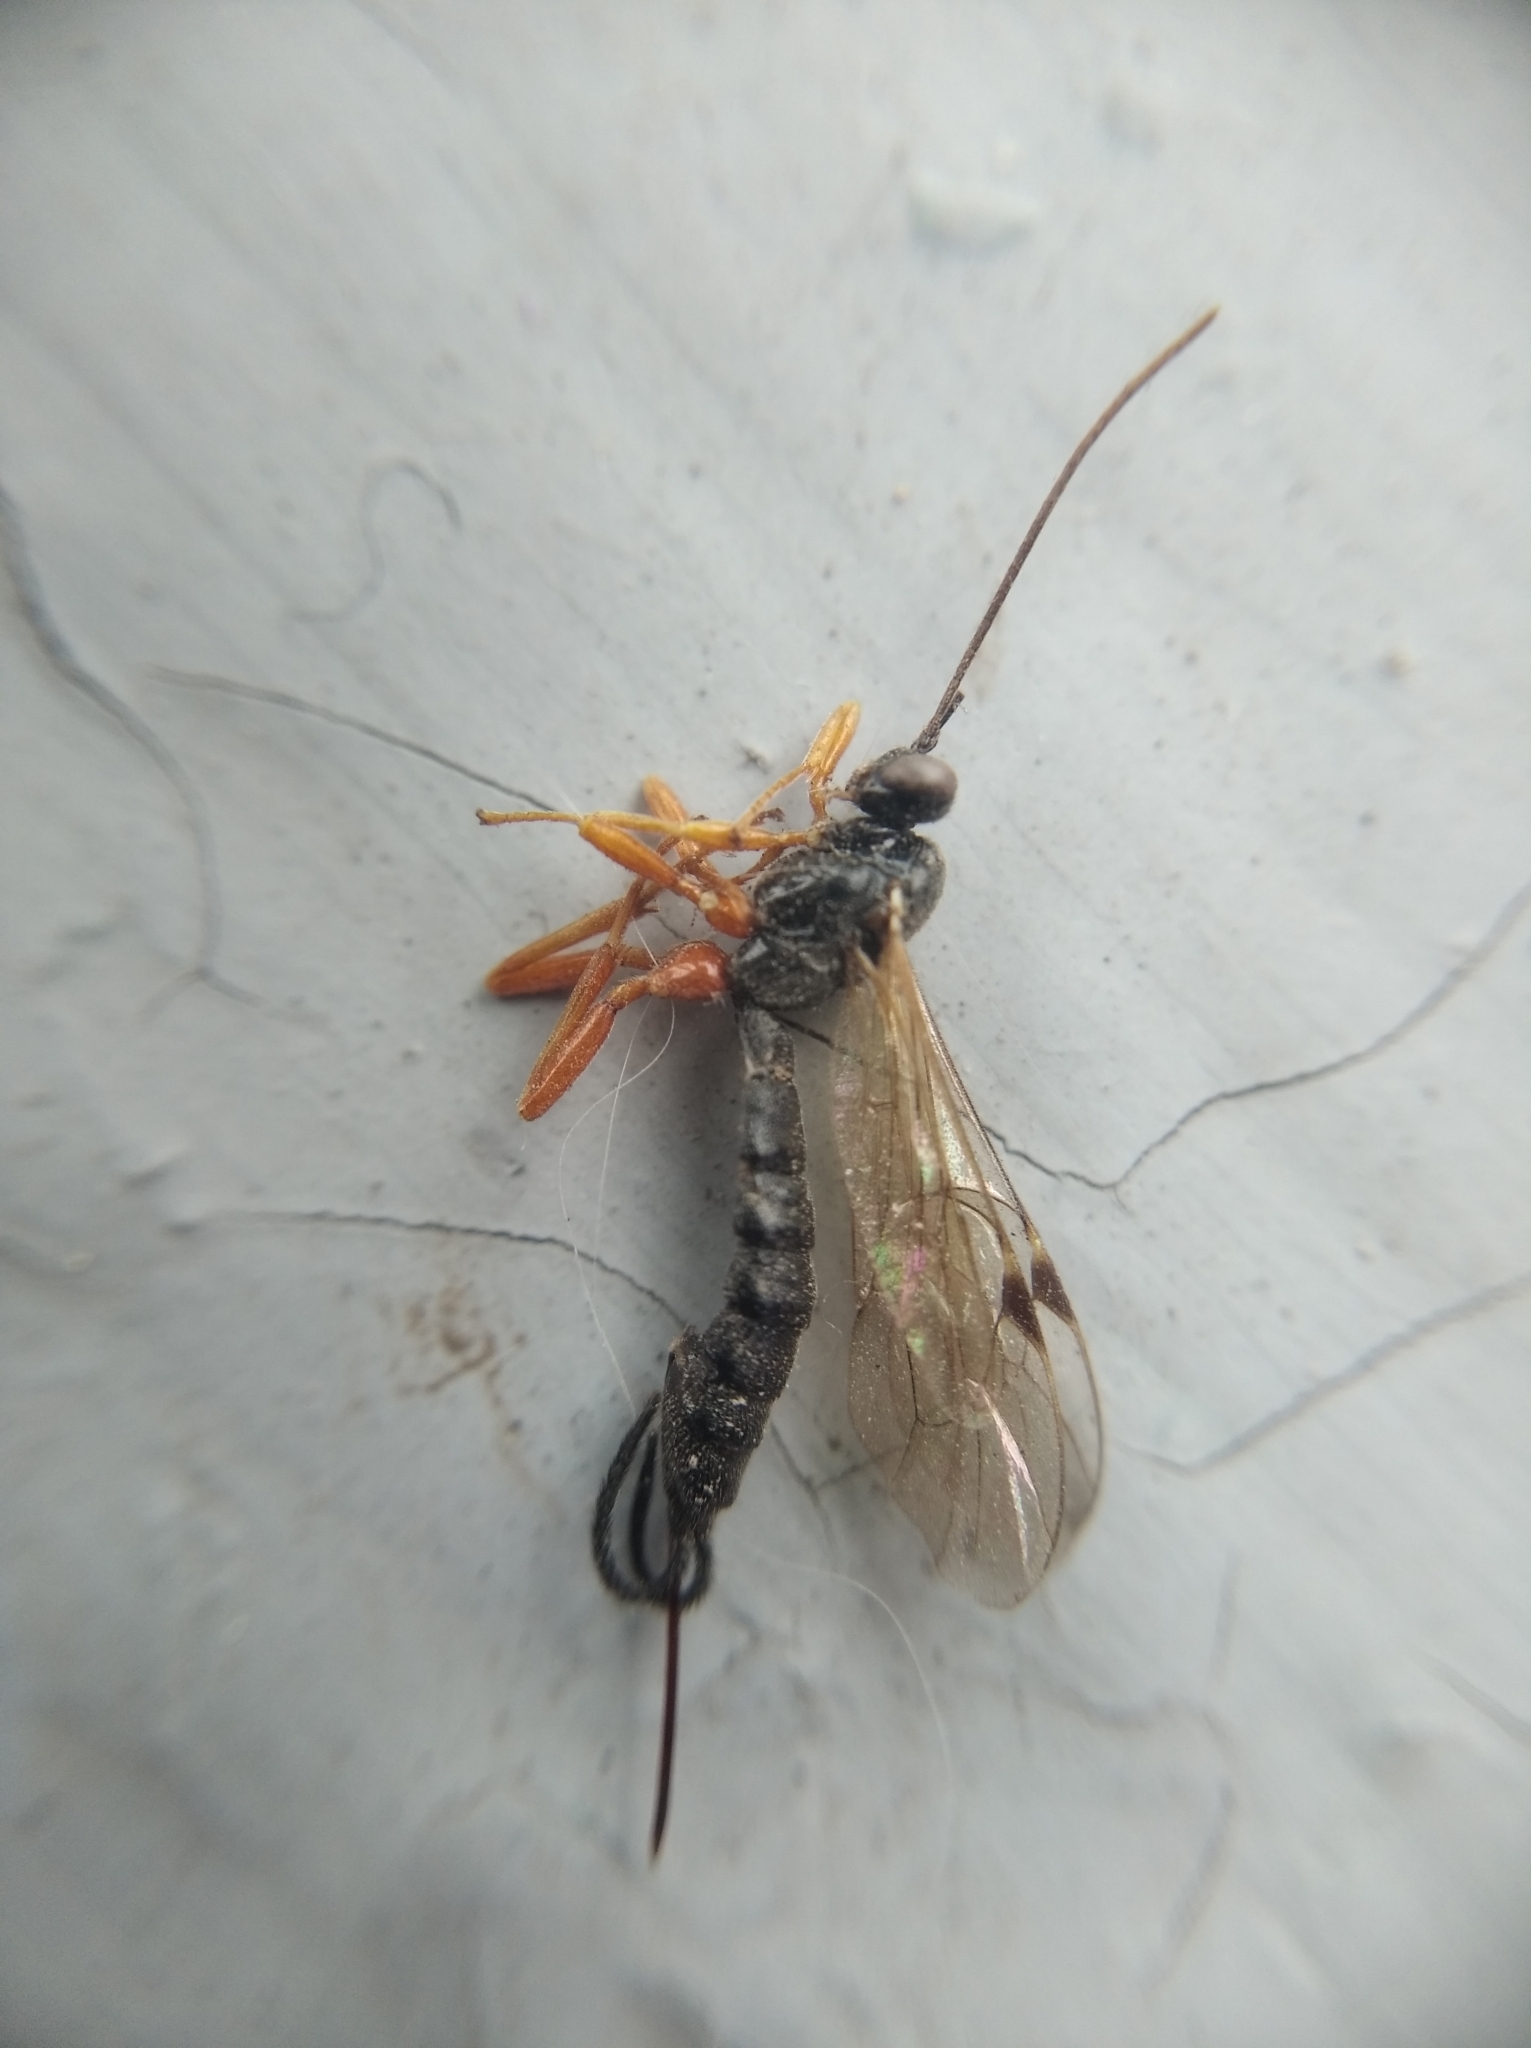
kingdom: Animalia
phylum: Arthropoda
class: Insecta
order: Hymenoptera
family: Ichneumonidae
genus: Scambus
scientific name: Scambus nigricans
